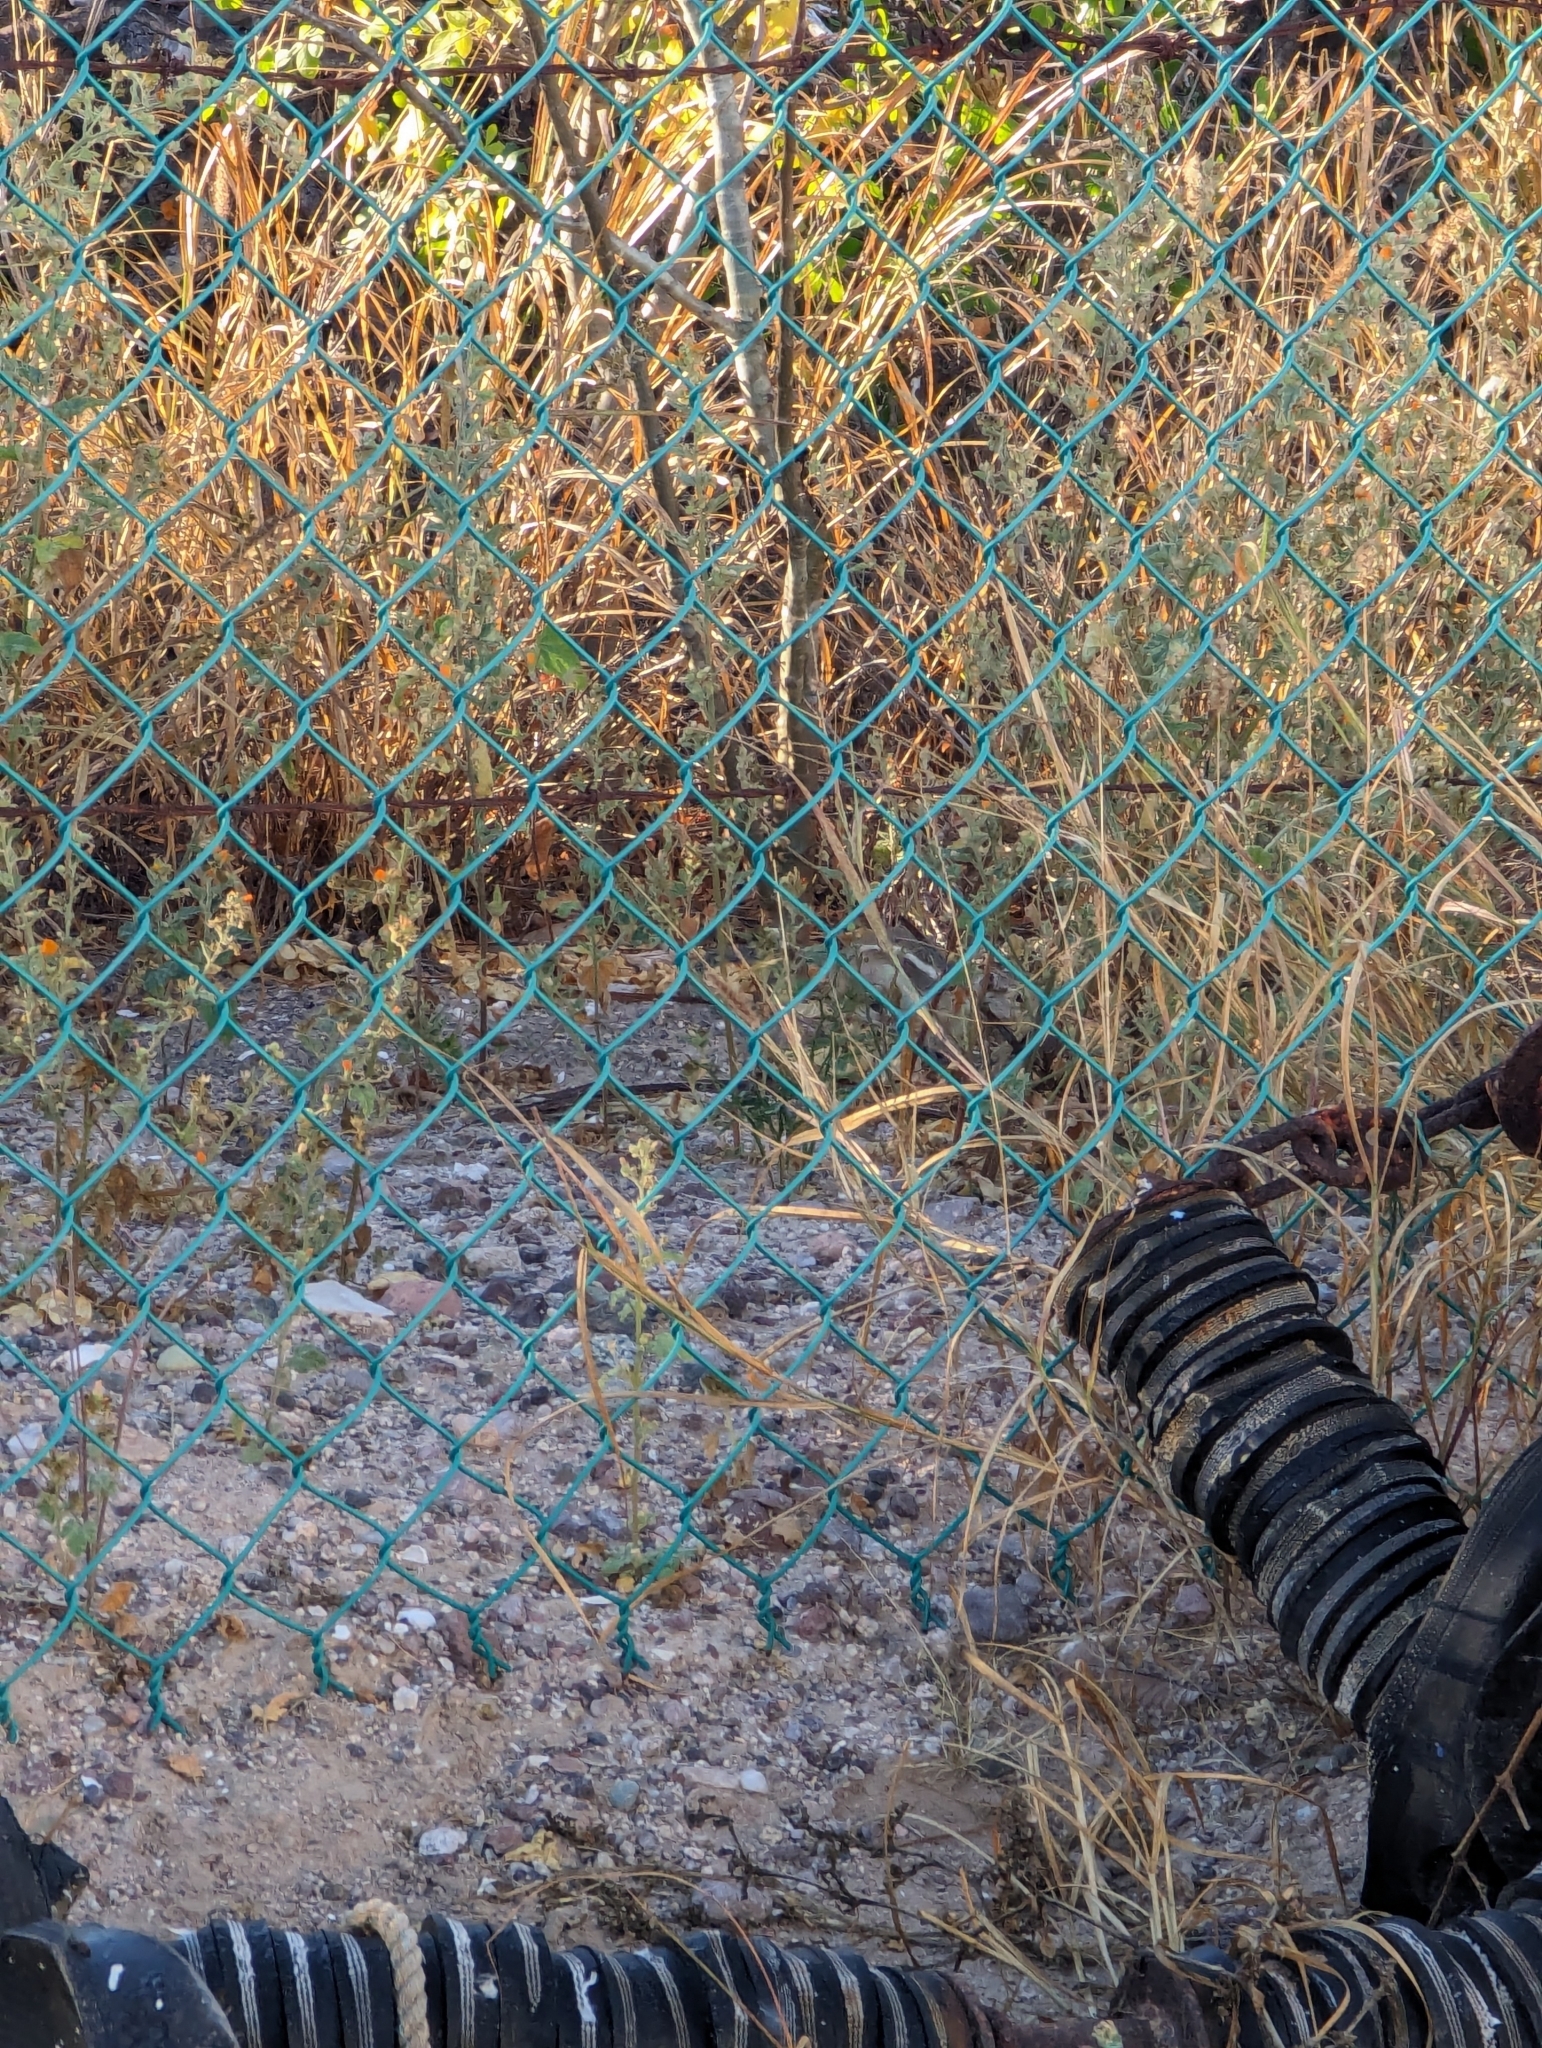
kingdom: Animalia
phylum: Chordata
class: Mammalia
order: Rodentia
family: Sciuridae
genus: Ammospermophilus
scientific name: Ammospermophilus leucurus
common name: White-tailed antelope squirrel
